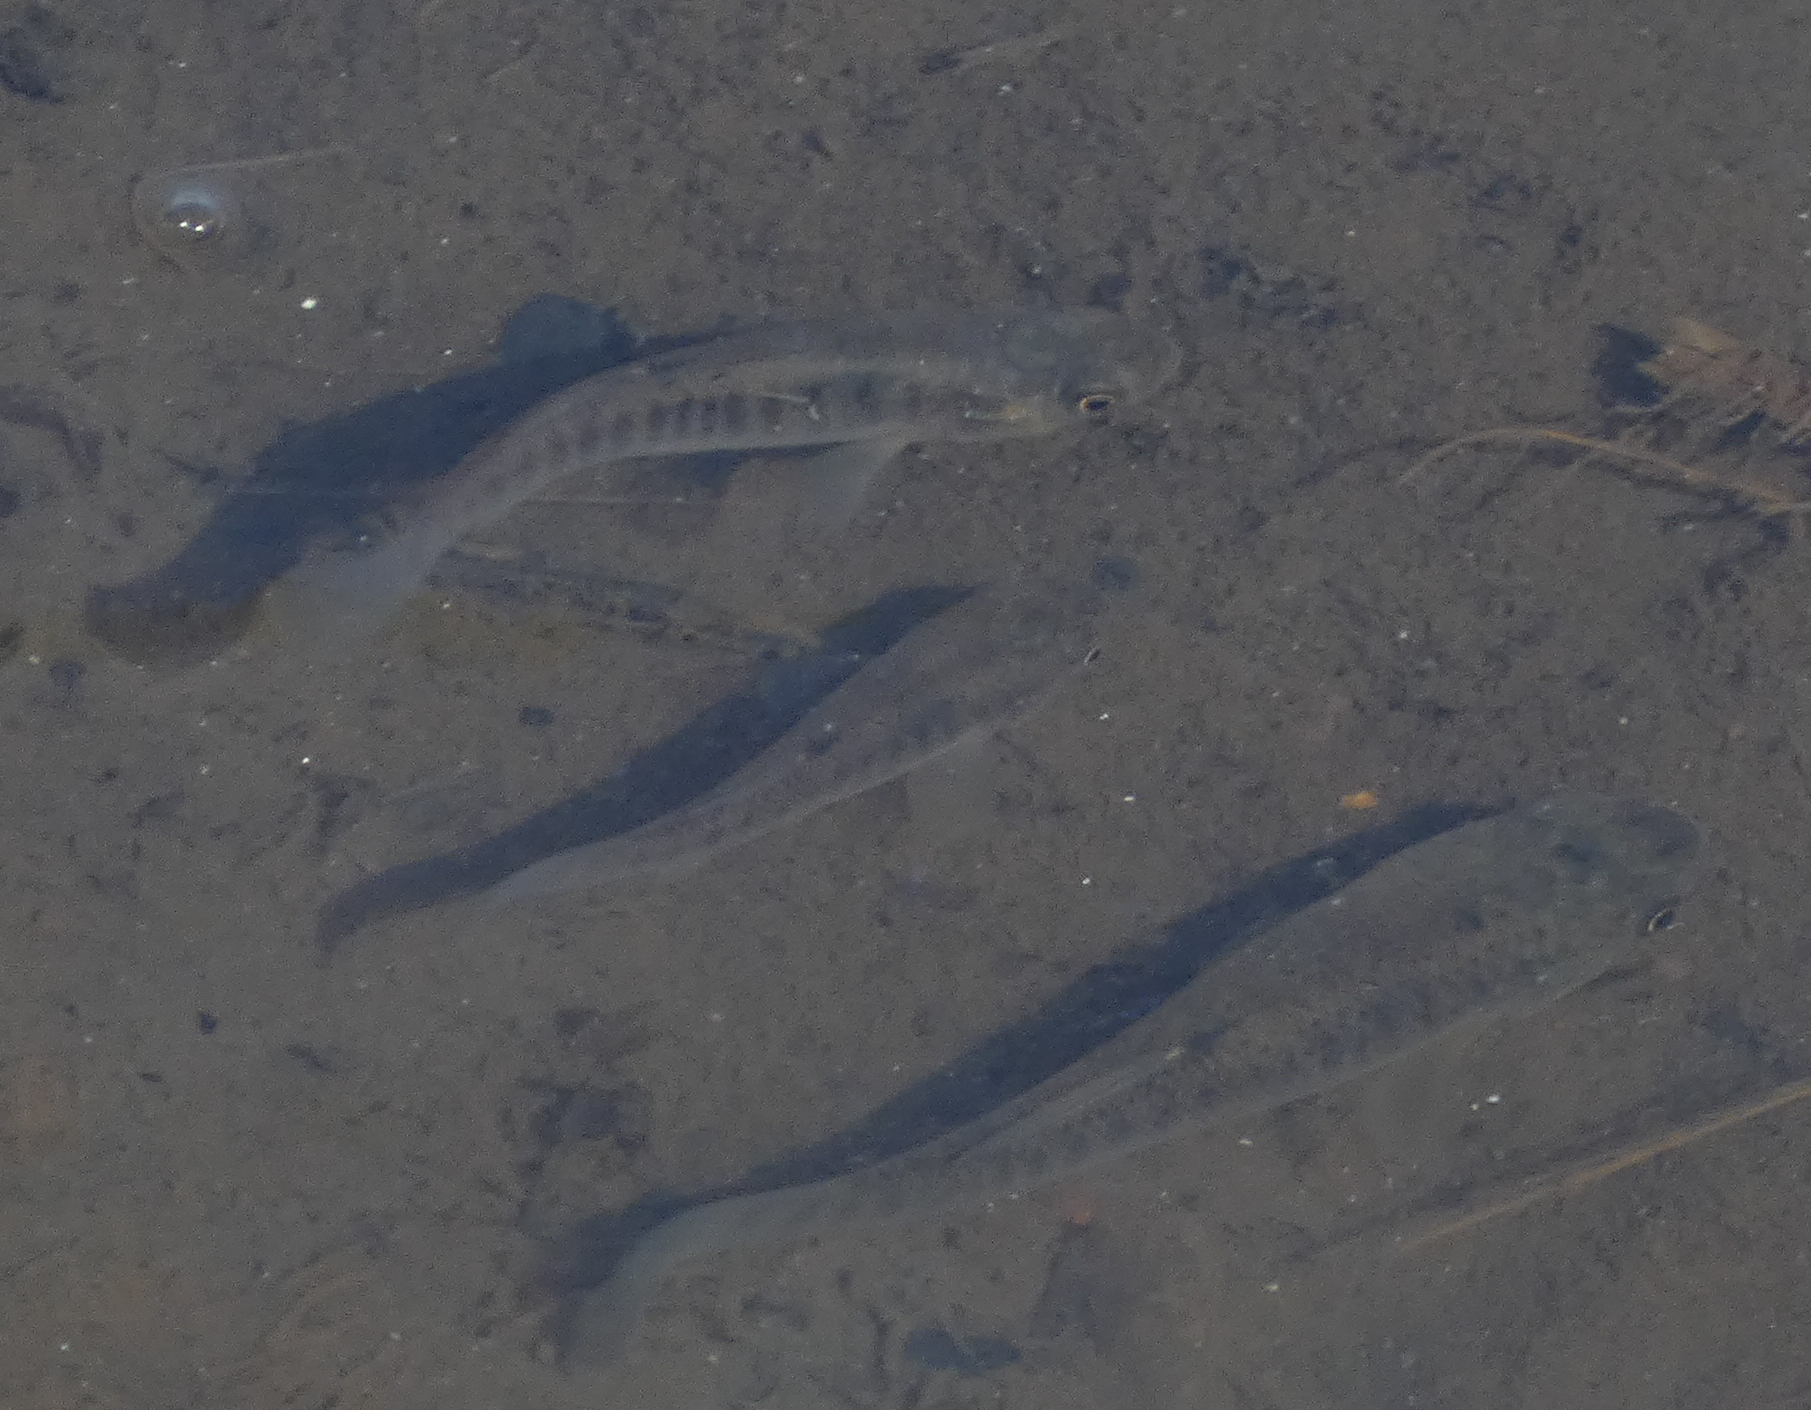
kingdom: Animalia
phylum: Chordata
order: Cyprinodontiformes
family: Fundulidae
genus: Fundulus
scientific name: Fundulus diaphanus
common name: Banded killifish
